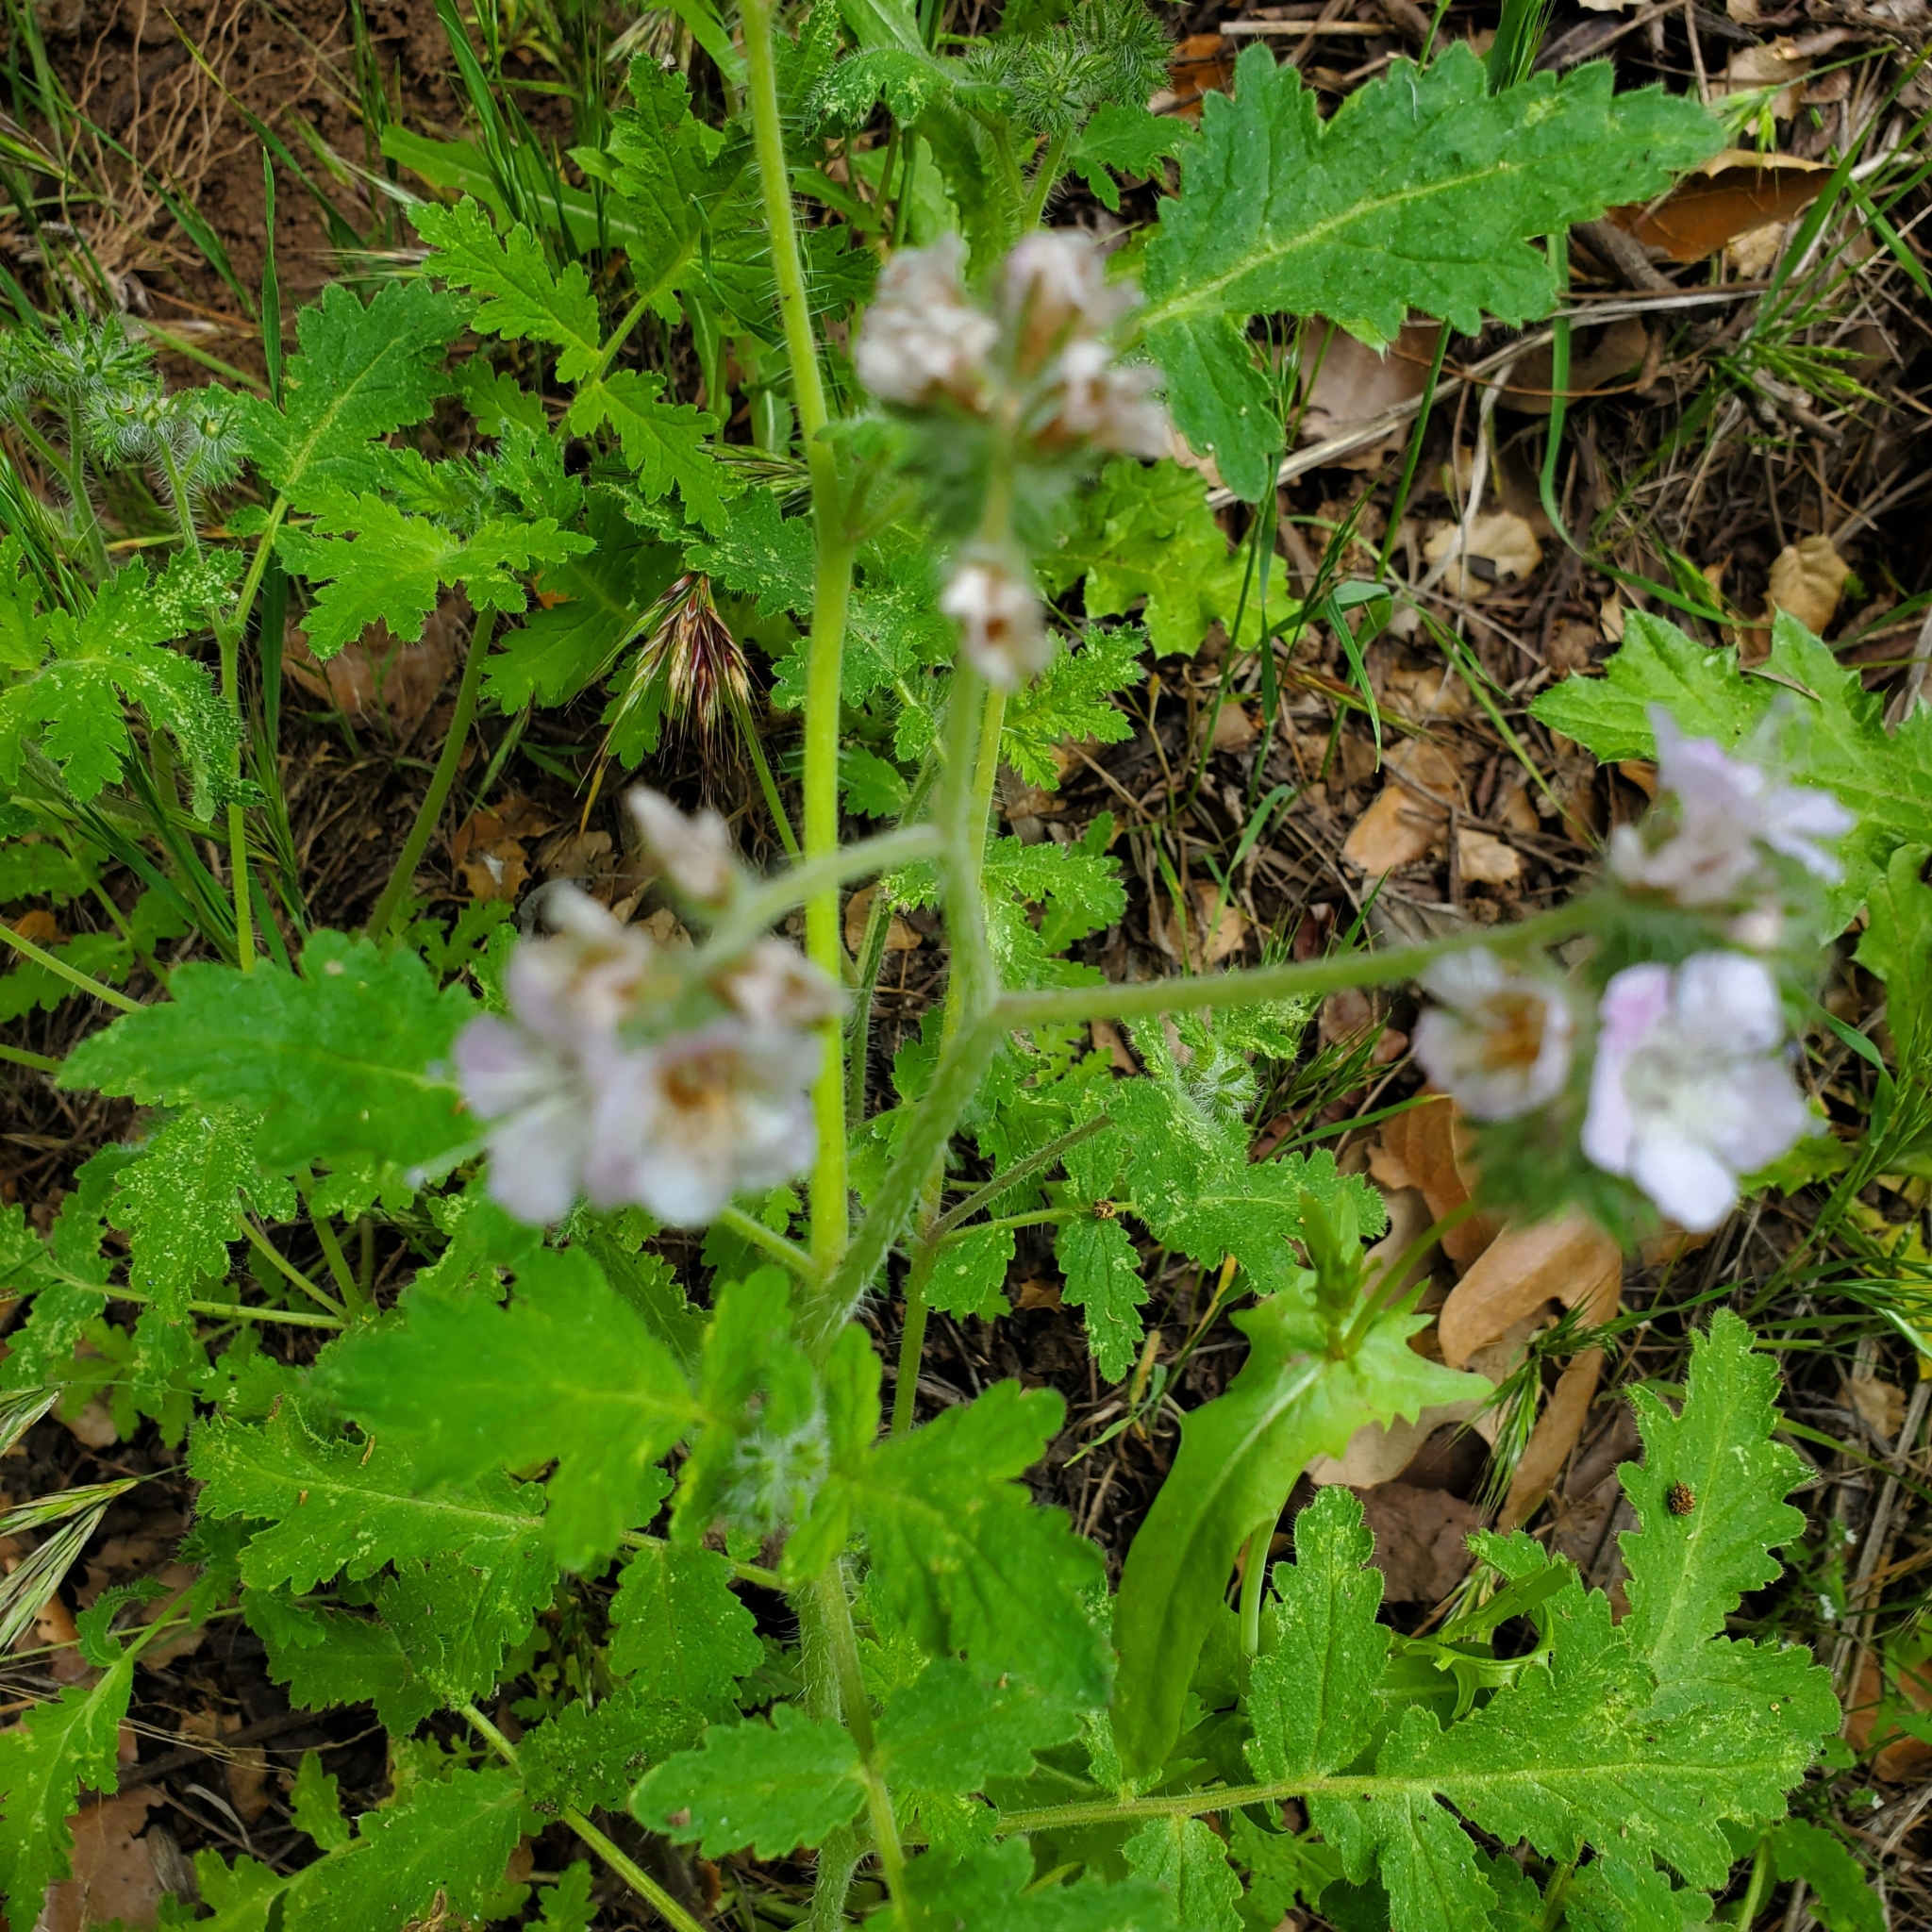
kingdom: Plantae
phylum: Tracheophyta
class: Magnoliopsida
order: Boraginales
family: Hydrophyllaceae
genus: Phacelia
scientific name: Phacelia cicutaria
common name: Caterpillar phacelia
